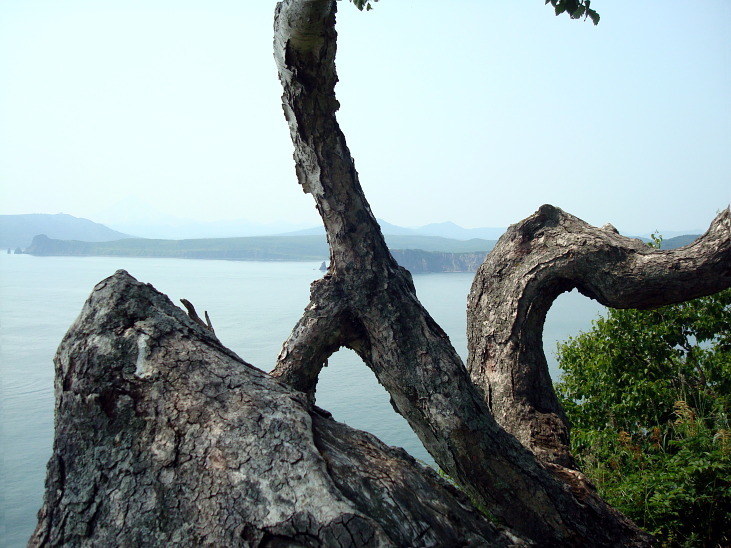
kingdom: Plantae
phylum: Tracheophyta
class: Magnoliopsida
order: Fagales
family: Betulaceae
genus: Betula
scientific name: Betula ermanii
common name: Erman's birch
